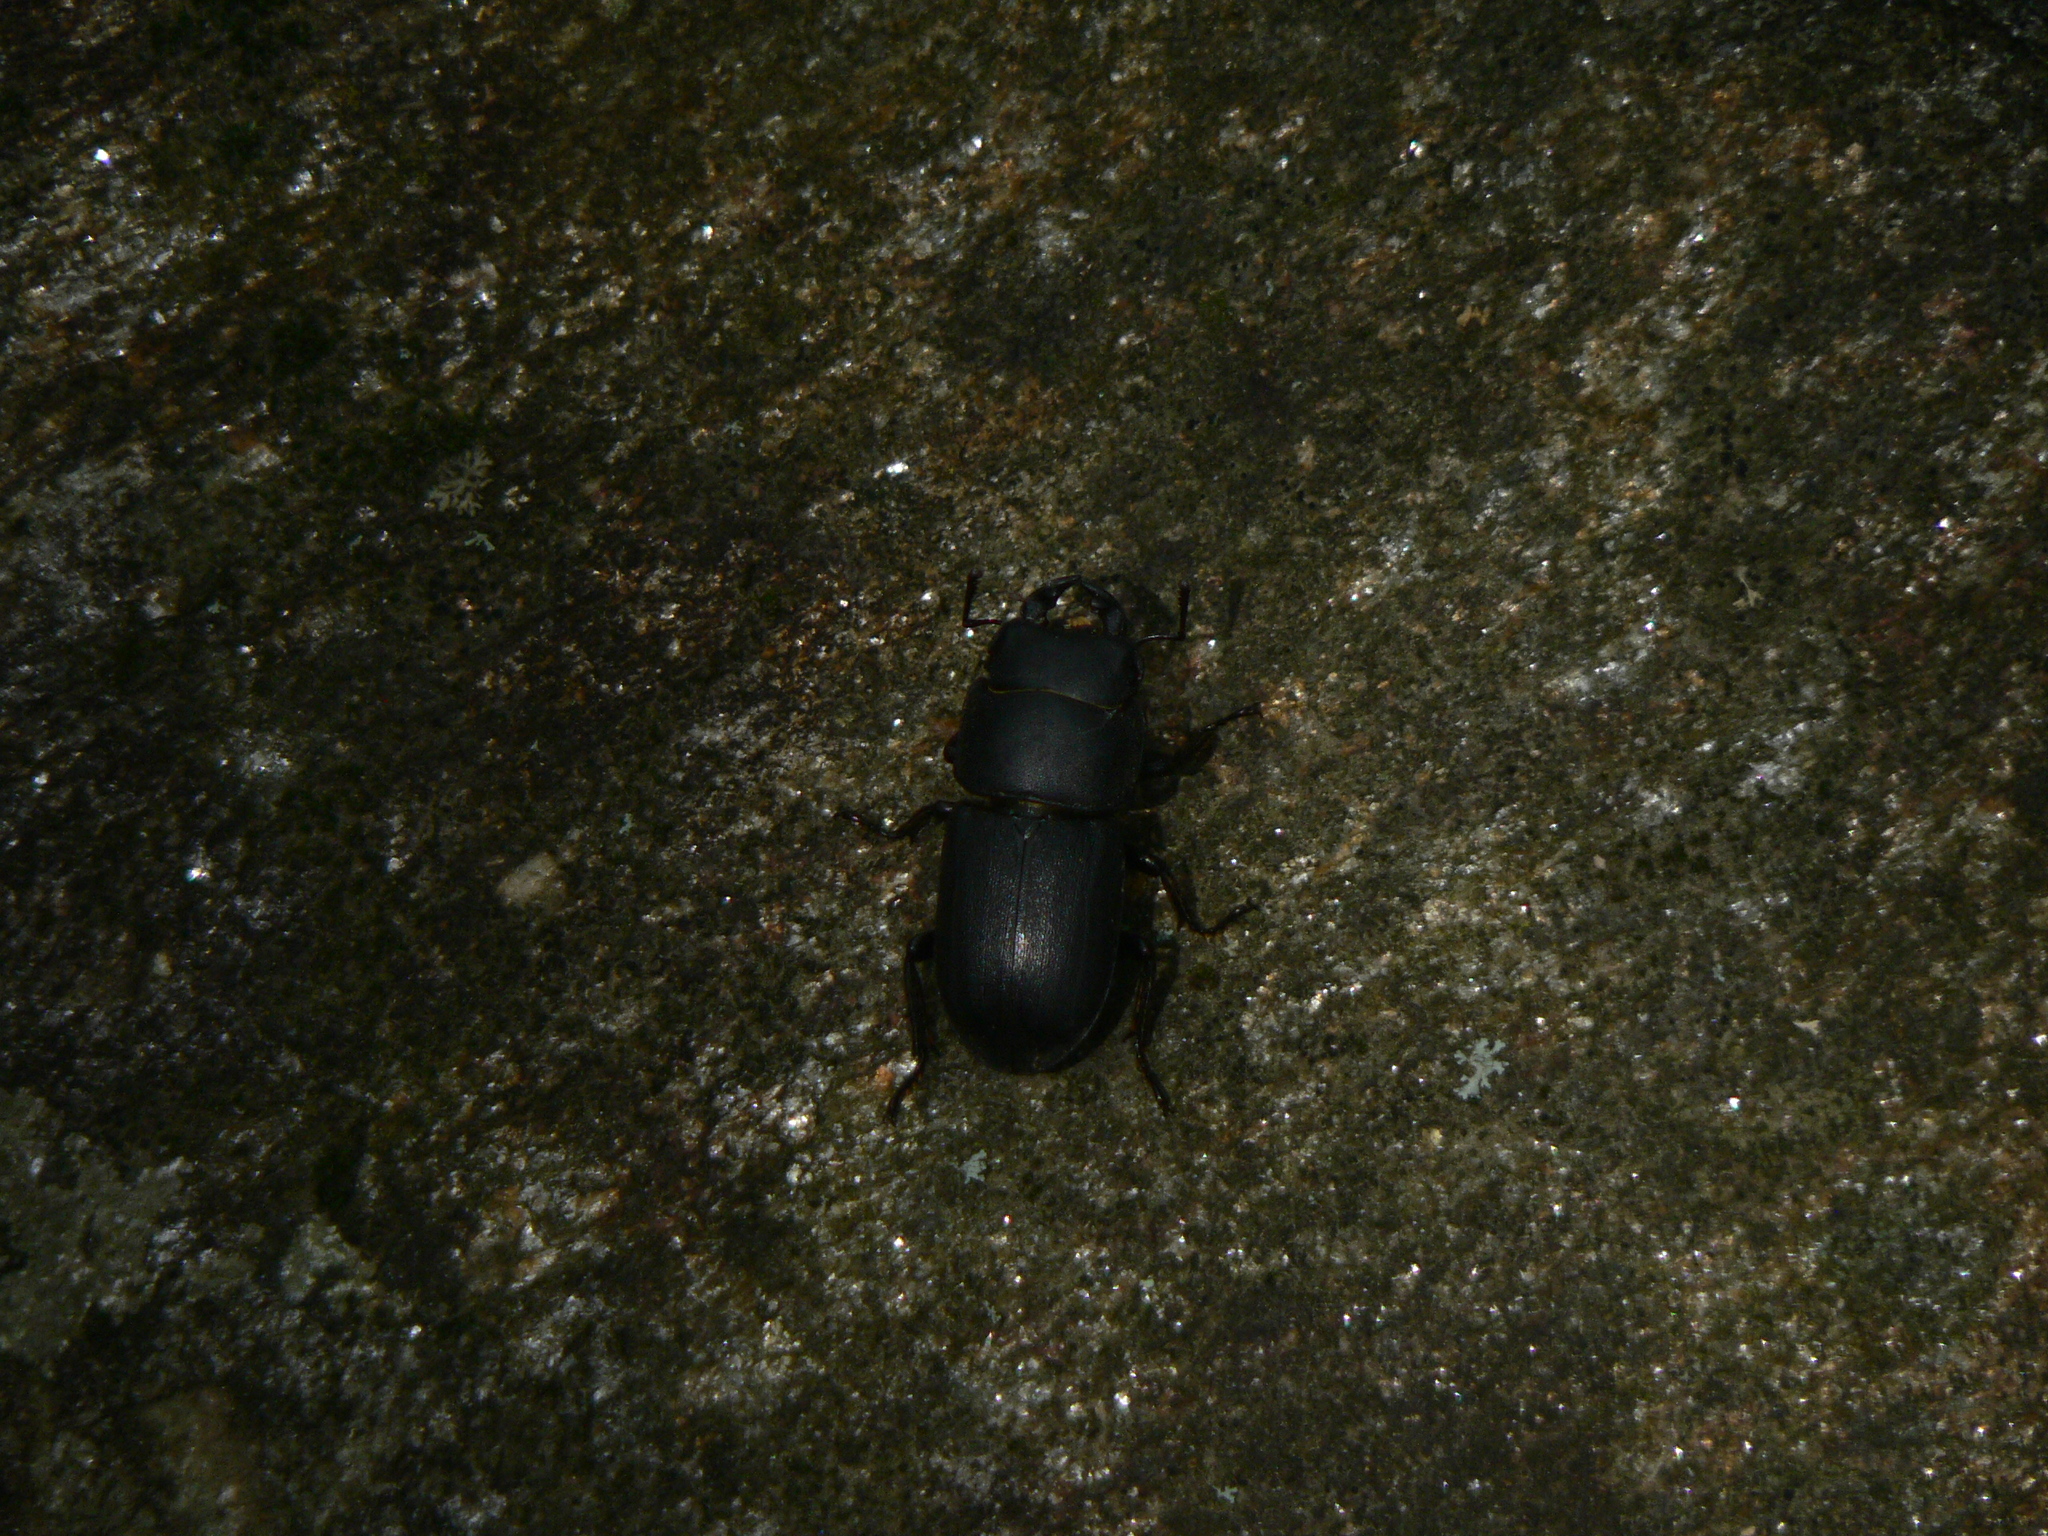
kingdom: Animalia
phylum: Arthropoda
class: Insecta
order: Coleoptera
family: Lucanidae
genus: Dorcus
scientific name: Dorcus parallelipipedus
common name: Lesser stag beetle
